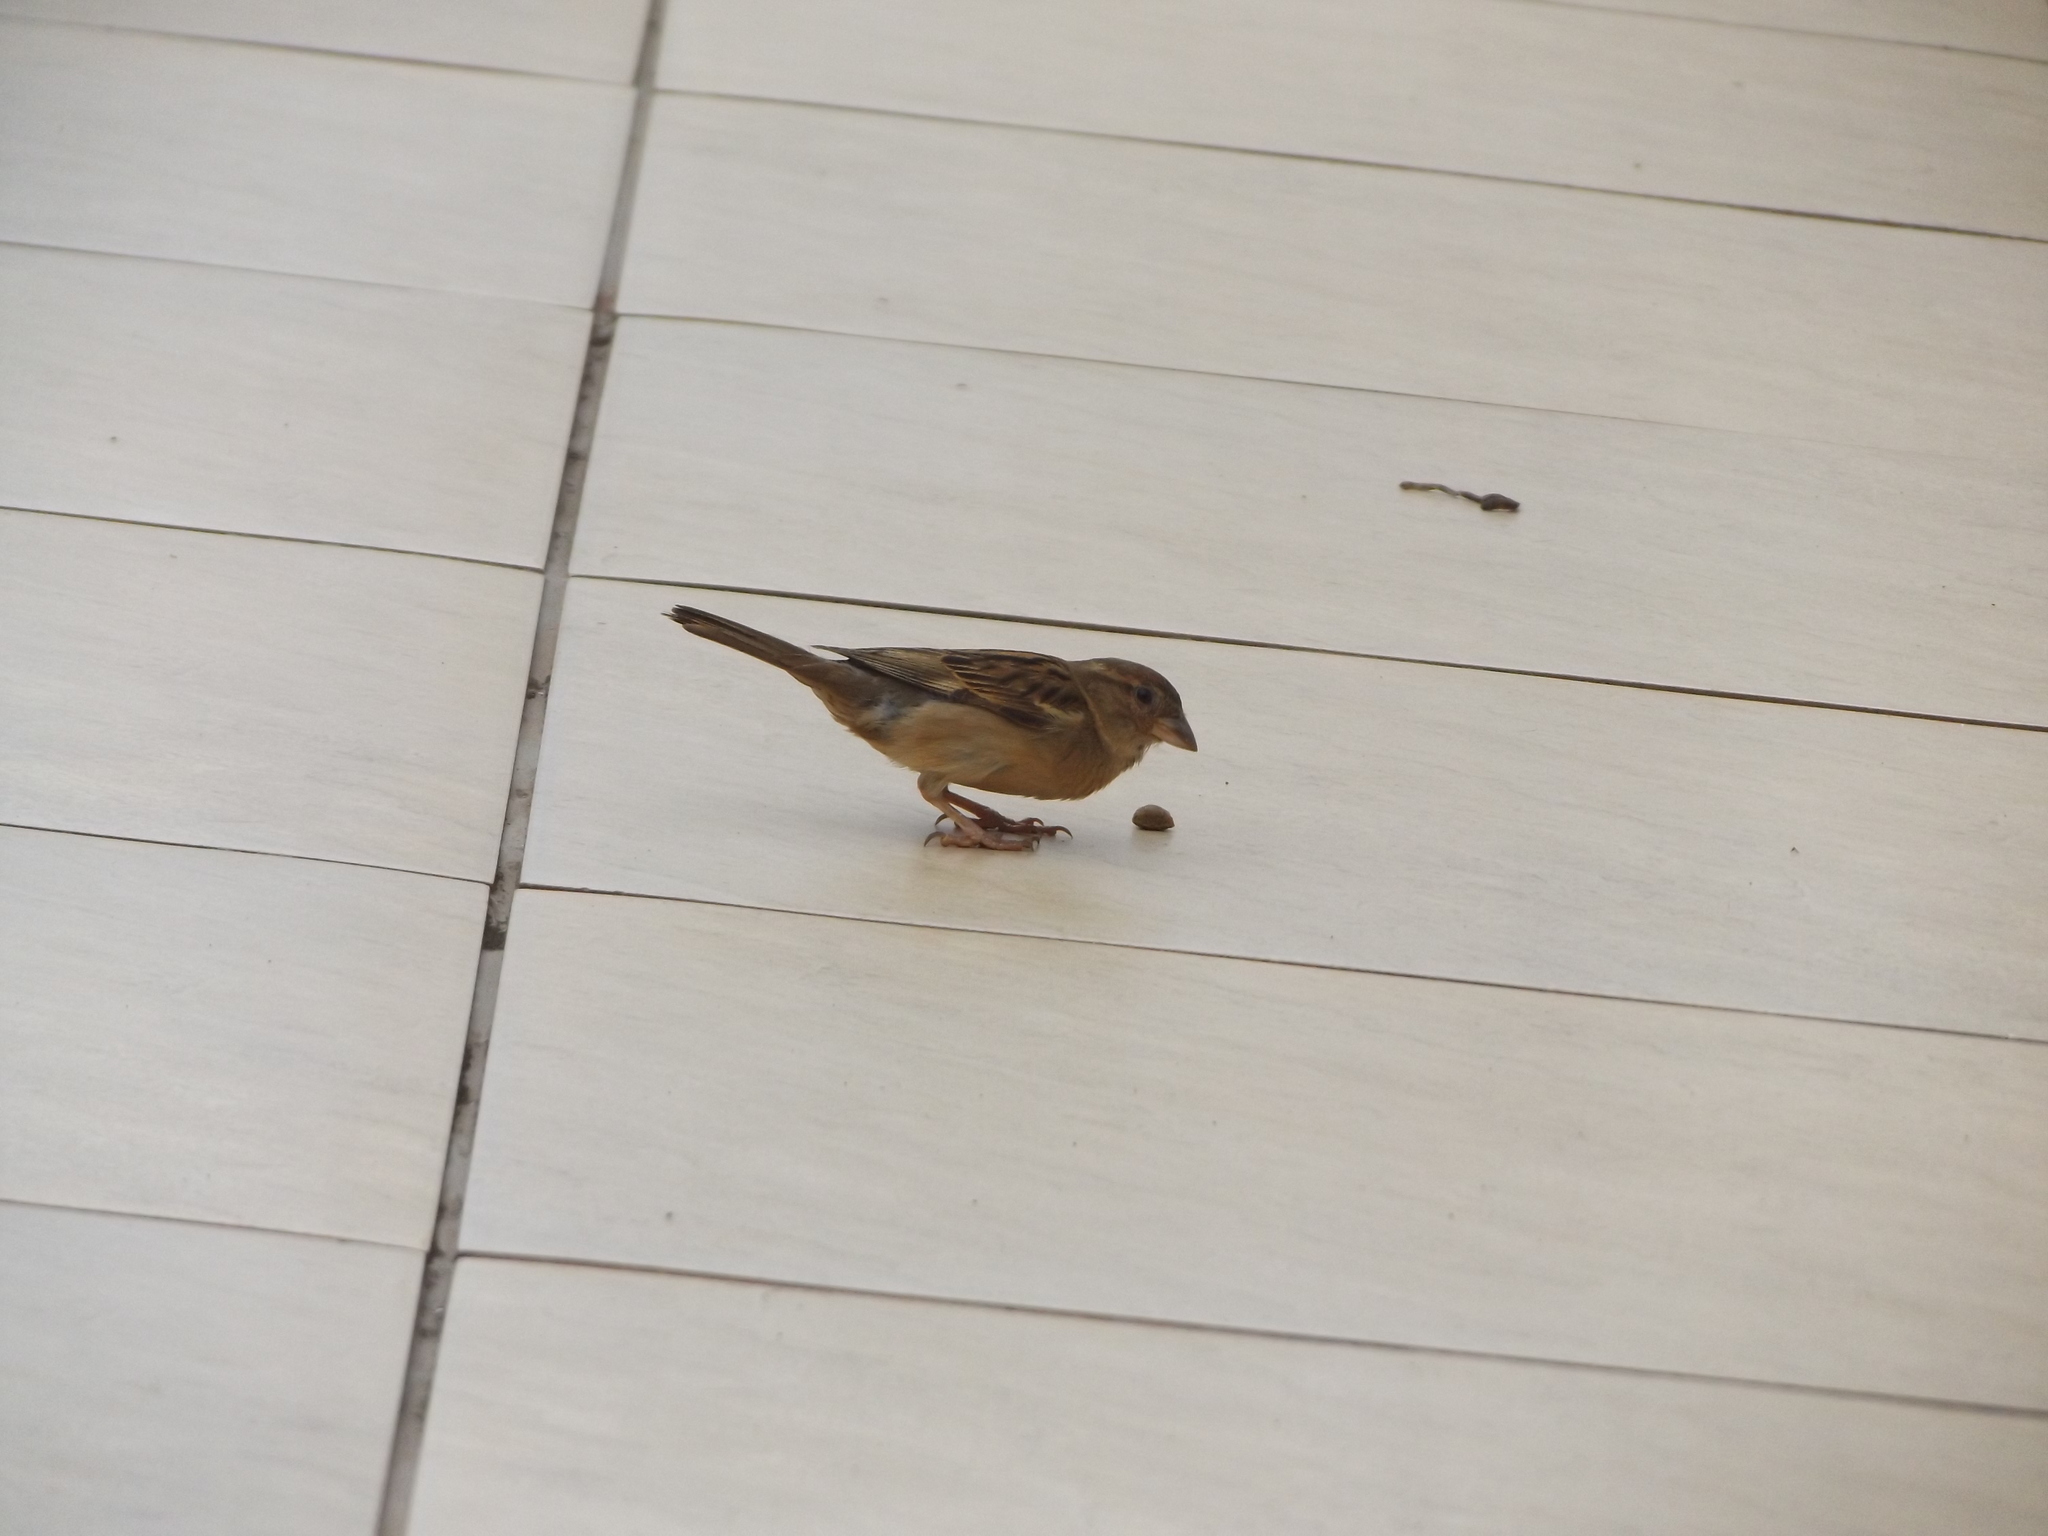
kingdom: Animalia
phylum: Chordata
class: Aves
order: Passeriformes
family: Passeridae
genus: Passer
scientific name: Passer domesticus
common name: House sparrow
